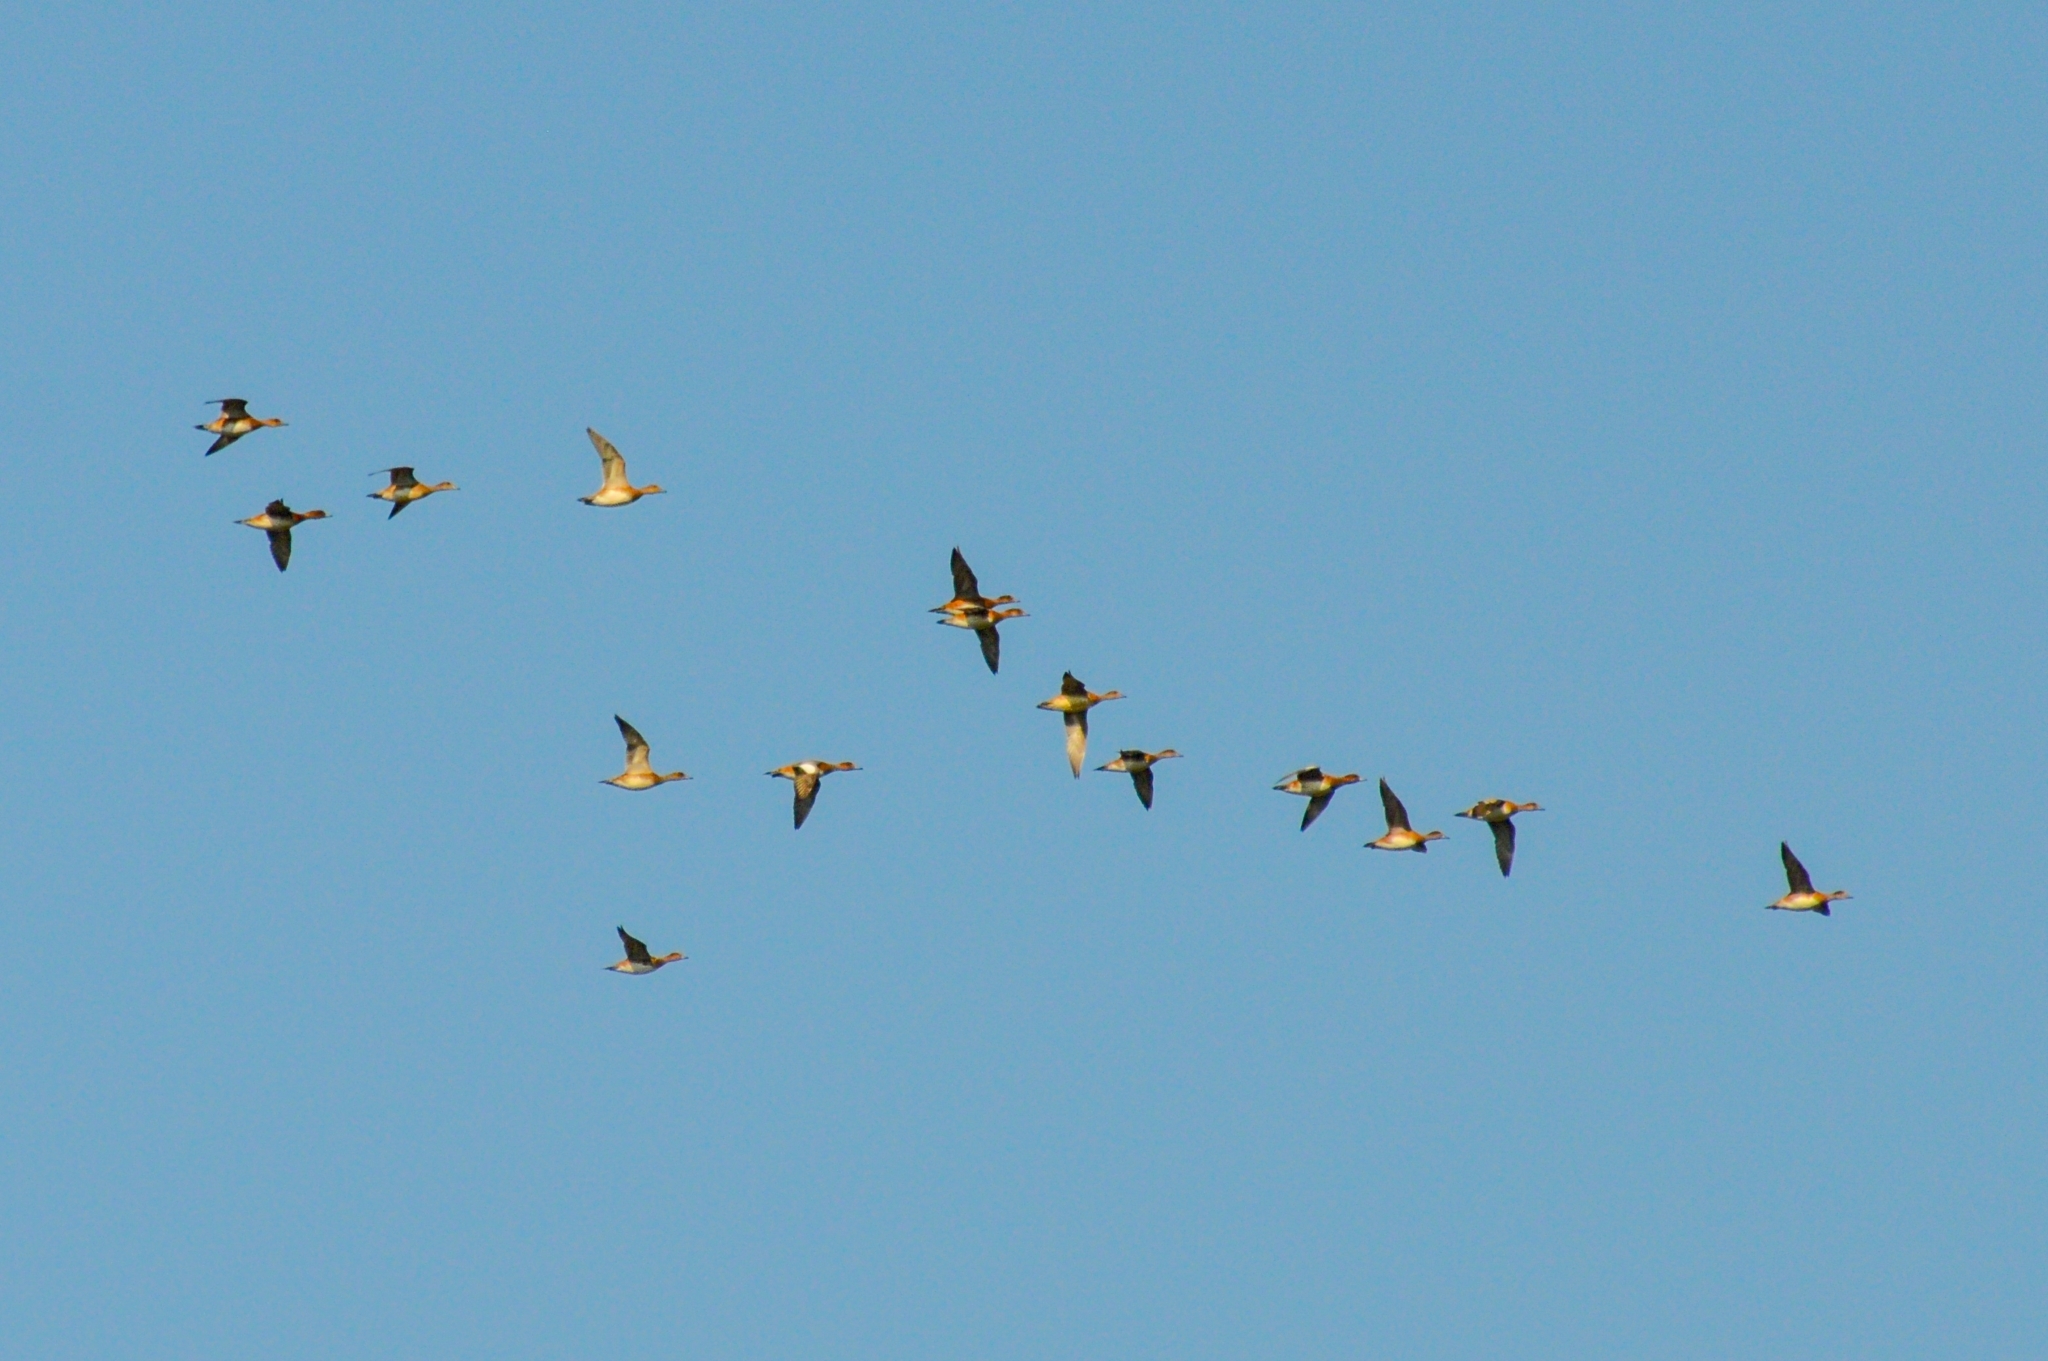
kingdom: Animalia
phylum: Chordata
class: Aves
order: Anseriformes
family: Anatidae
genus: Mareca
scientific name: Mareca penelope
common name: Eurasian wigeon
